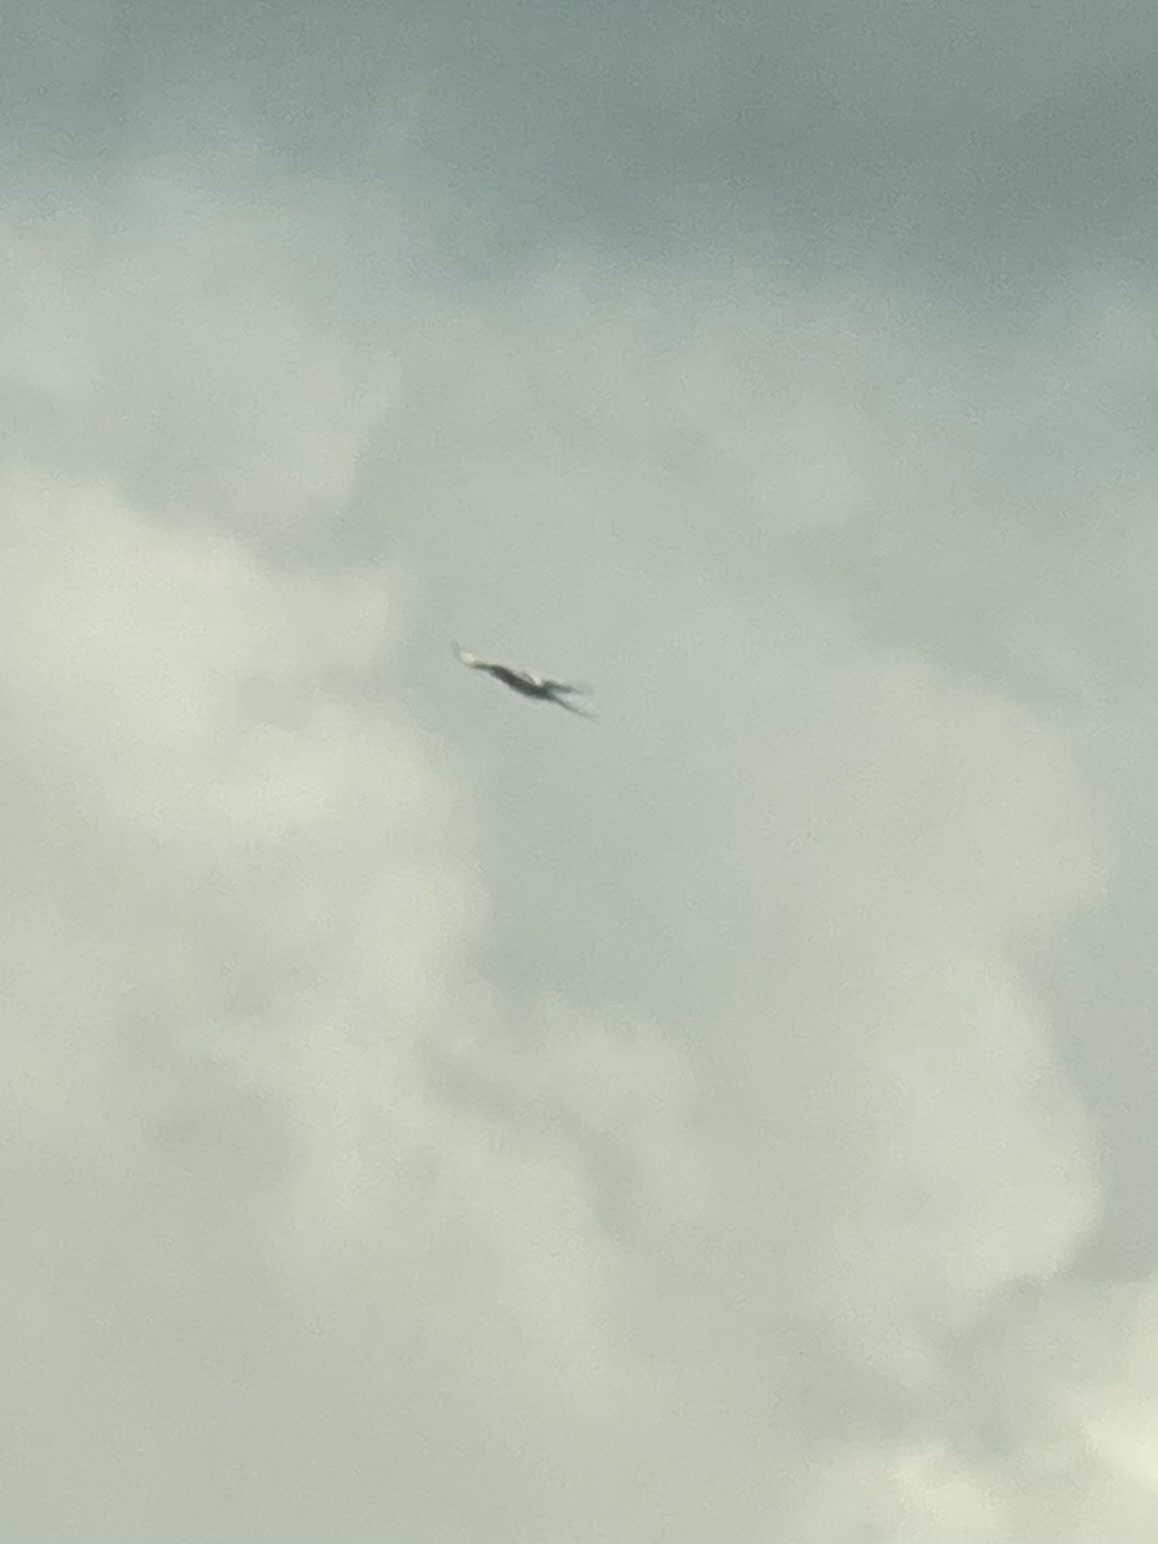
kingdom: Animalia
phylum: Chordata
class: Aves
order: Passeriformes
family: Corvidae
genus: Pica
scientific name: Pica pica
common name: Eurasian magpie
